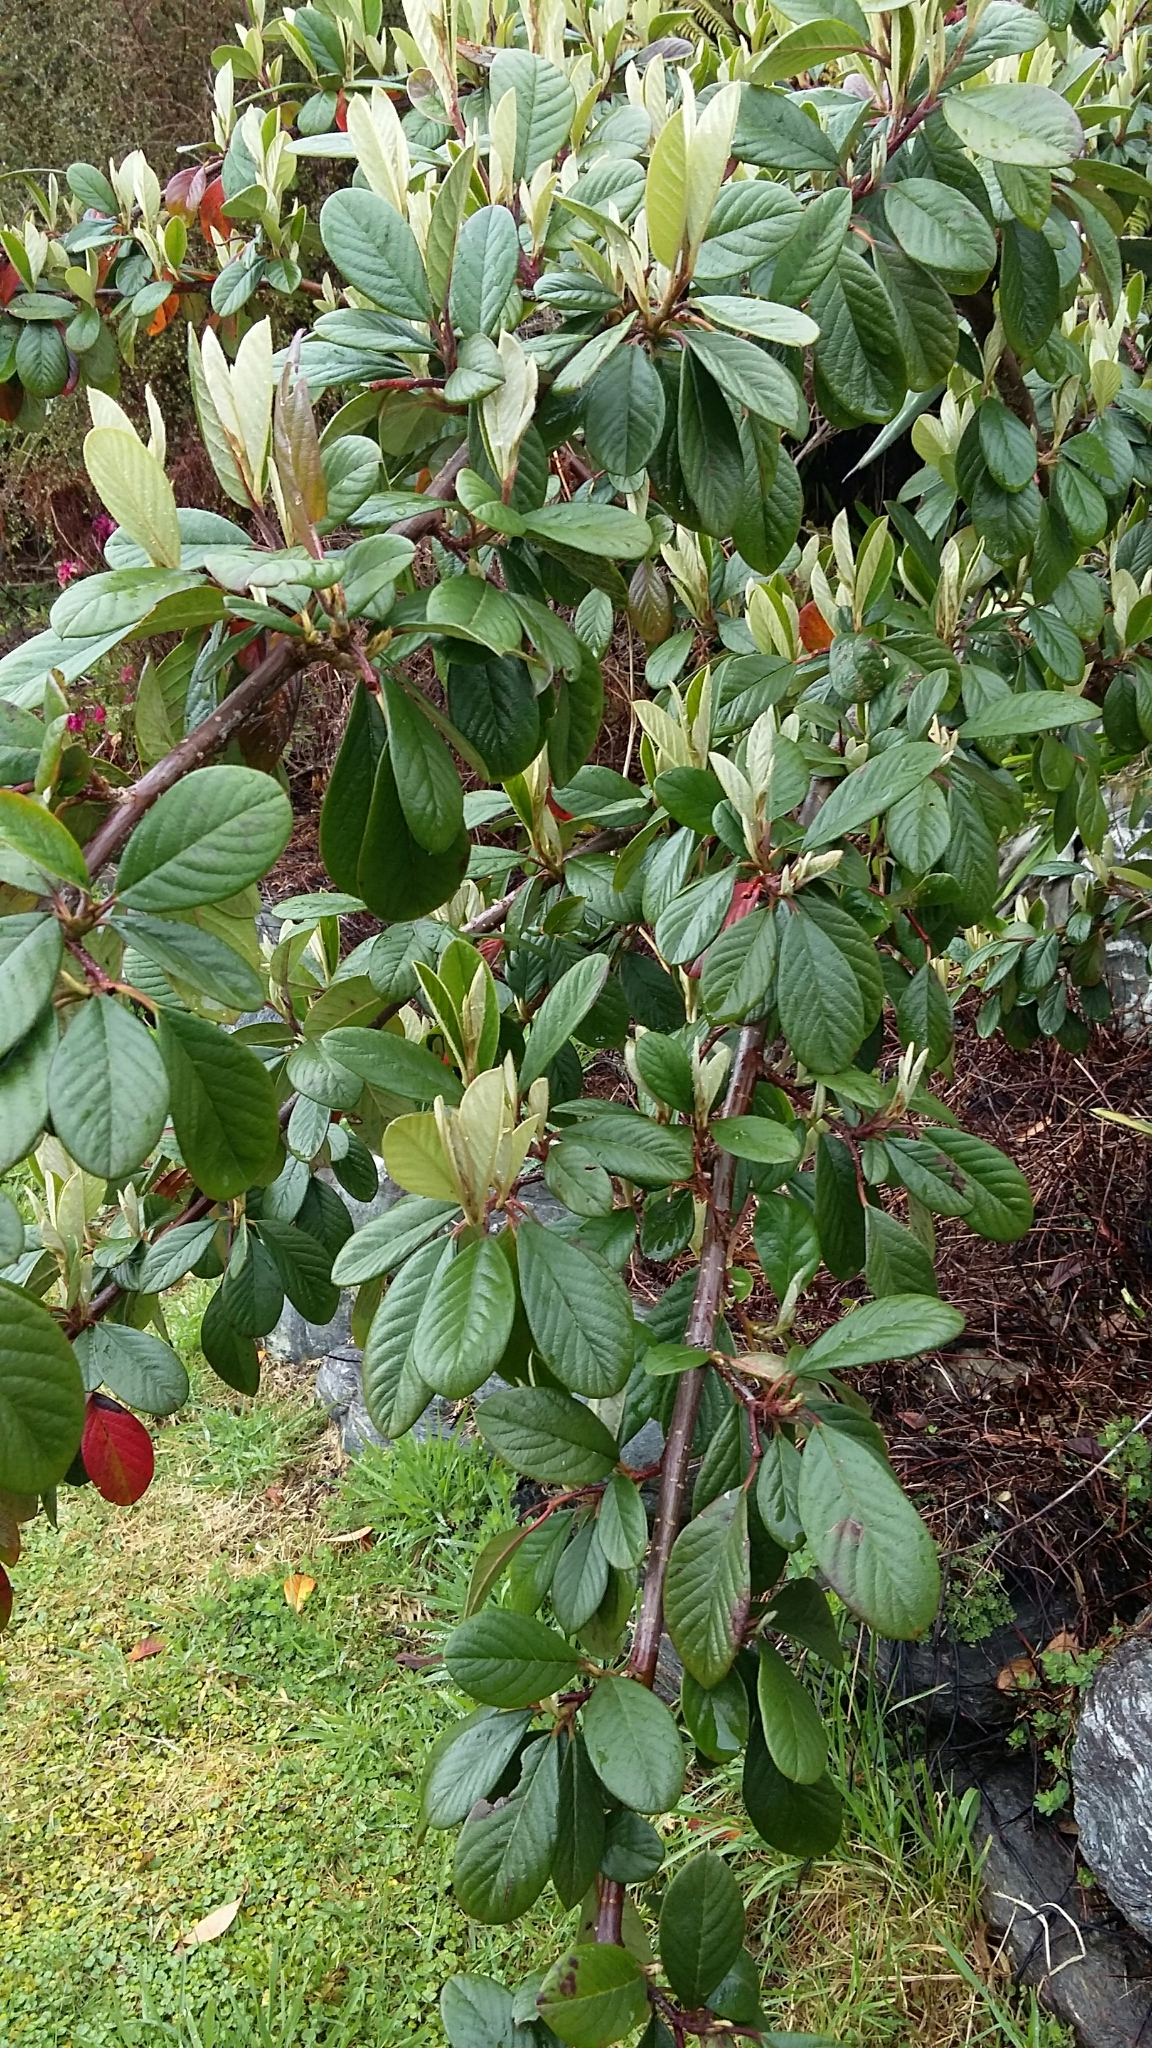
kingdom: Plantae
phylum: Tracheophyta
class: Magnoliopsida
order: Rosales
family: Rosaceae
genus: Cotoneaster
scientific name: Cotoneaster glaucophyllus
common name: Glaucous cotoneaster
